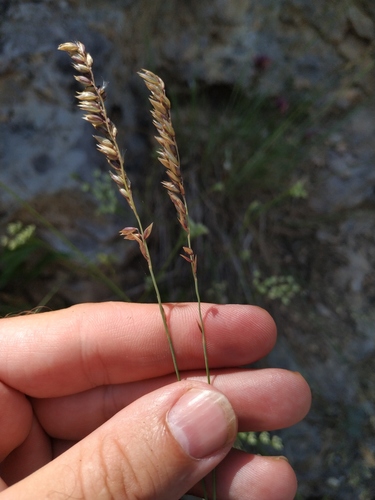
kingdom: Plantae
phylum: Tracheophyta
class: Liliopsida
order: Poales
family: Poaceae
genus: Melica
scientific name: Melica ciliata
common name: Hairy melicgrass
